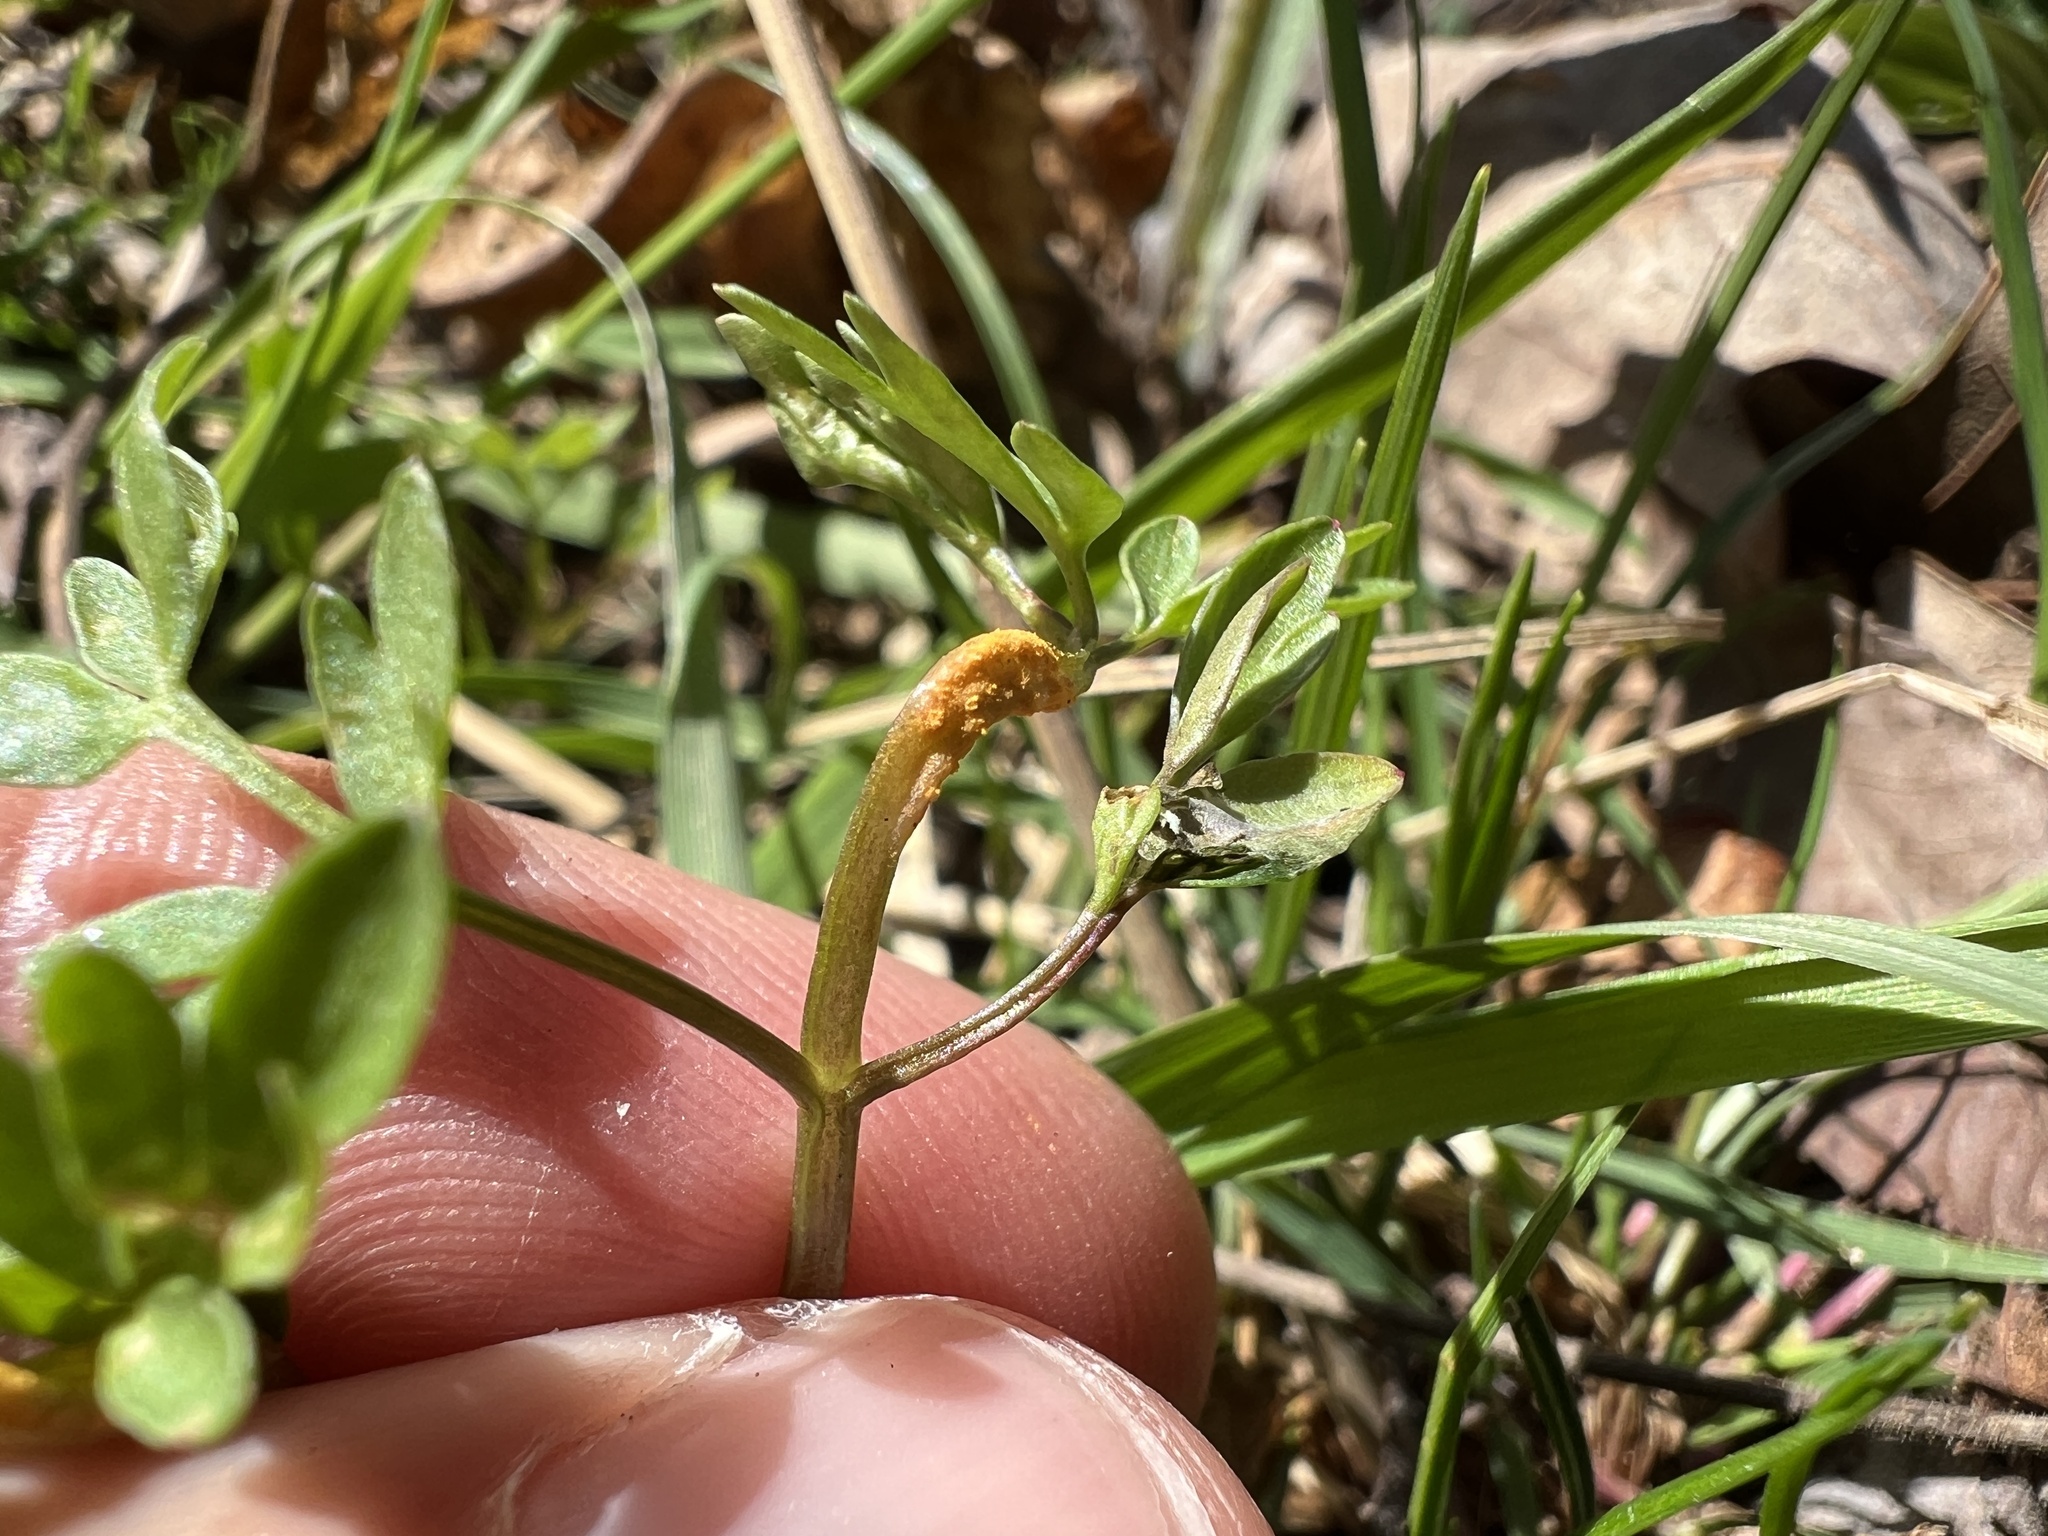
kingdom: Fungi
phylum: Basidiomycota
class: Pucciniomycetes
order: Pucciniales
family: Pucciniaceae
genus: Puccinia
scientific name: Puccinia erigeniae
